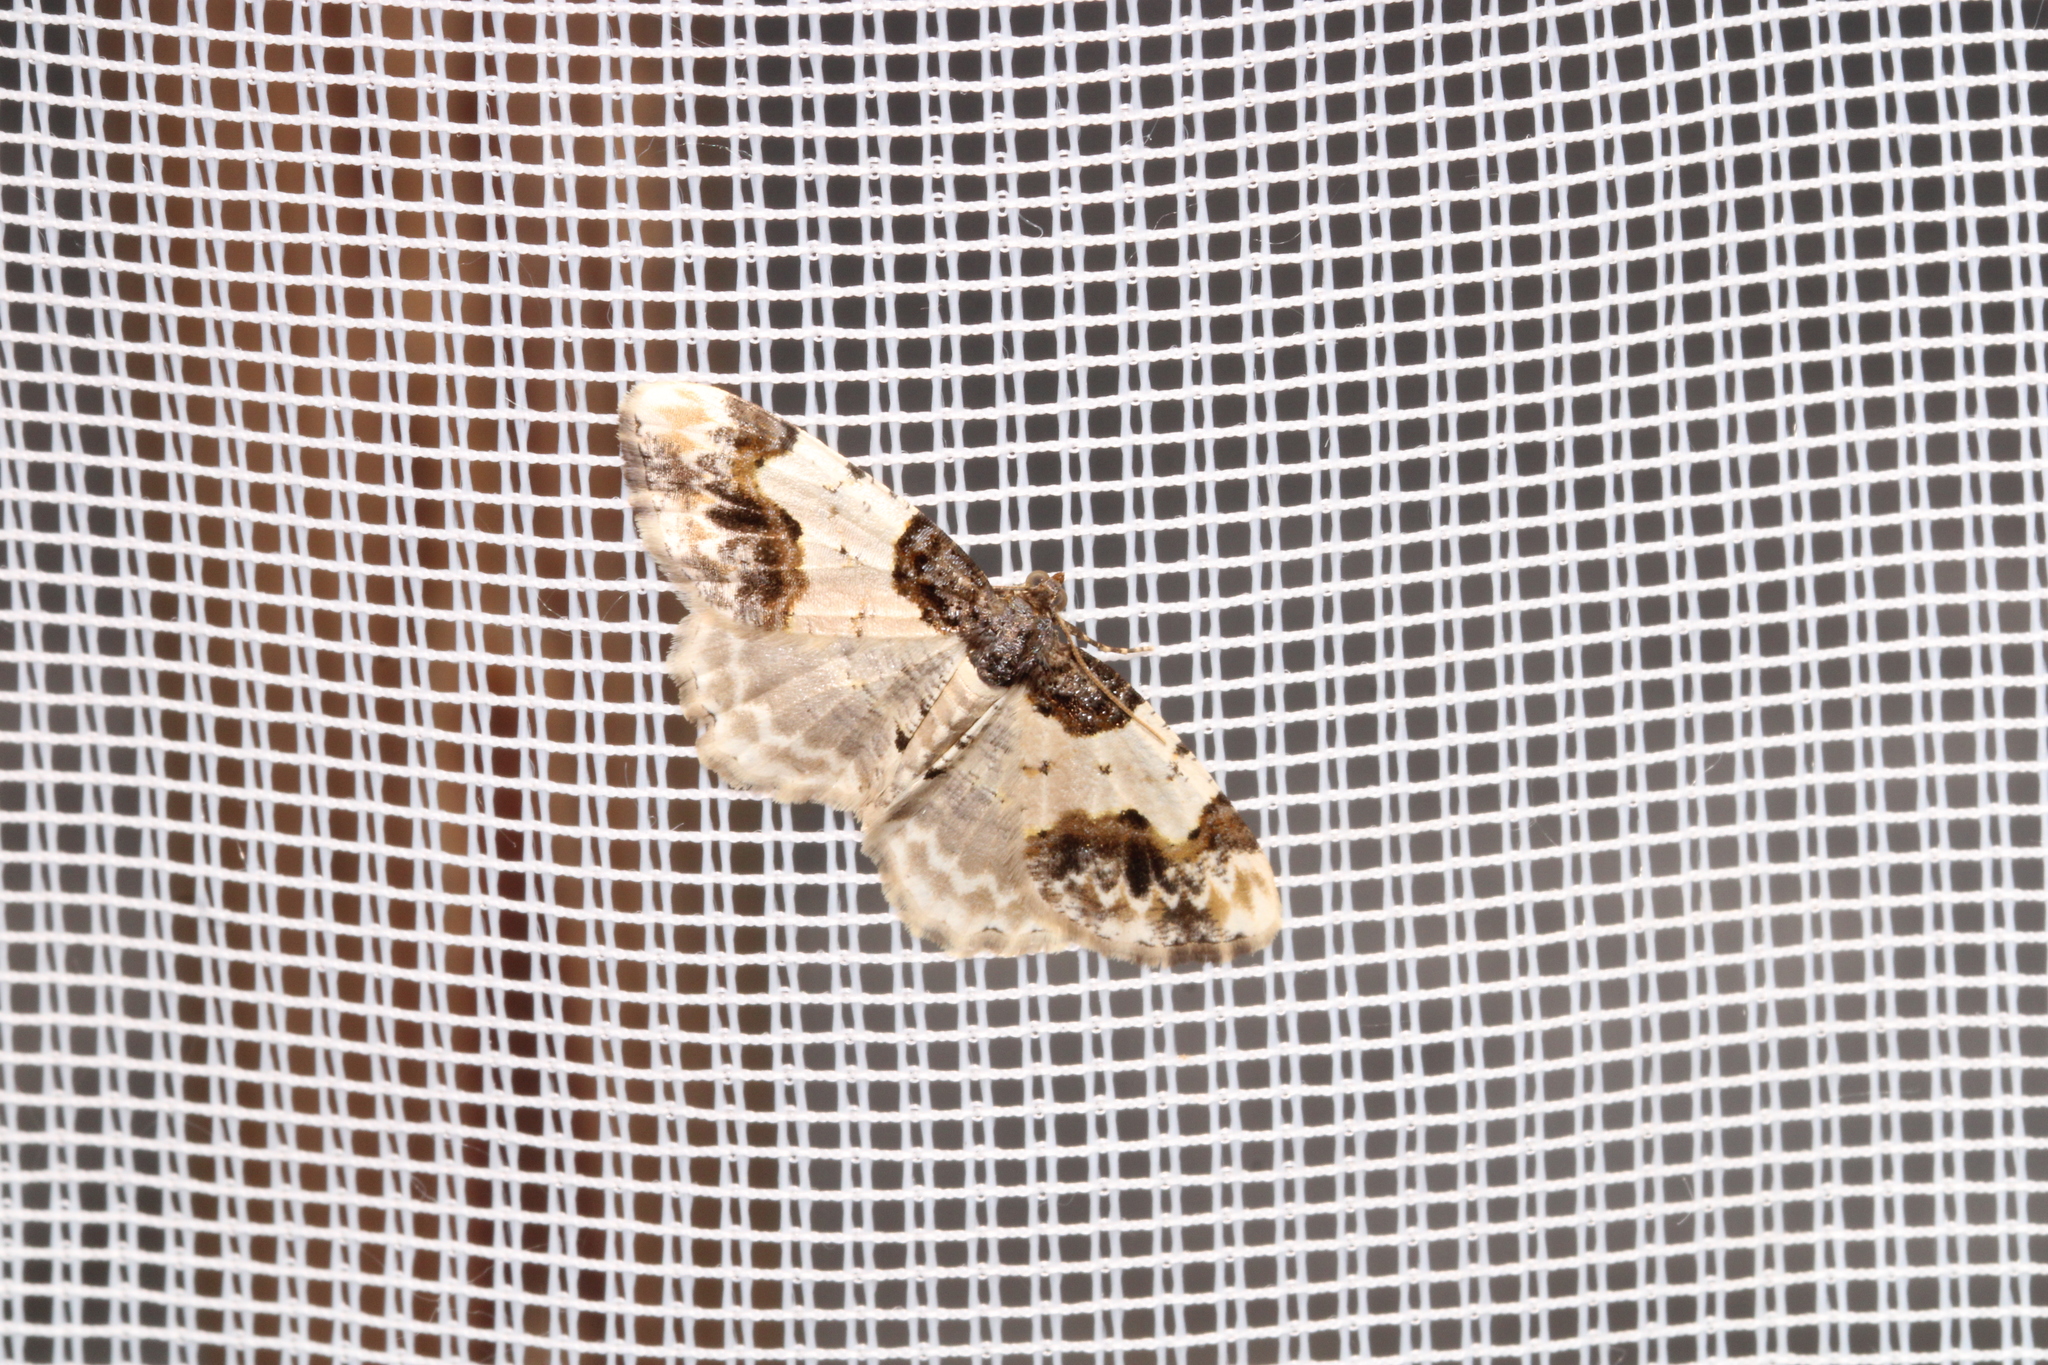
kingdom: Animalia
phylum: Arthropoda
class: Insecta
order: Lepidoptera
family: Geometridae
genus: Ligdia
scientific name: Ligdia adustata
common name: Scorched carpet
